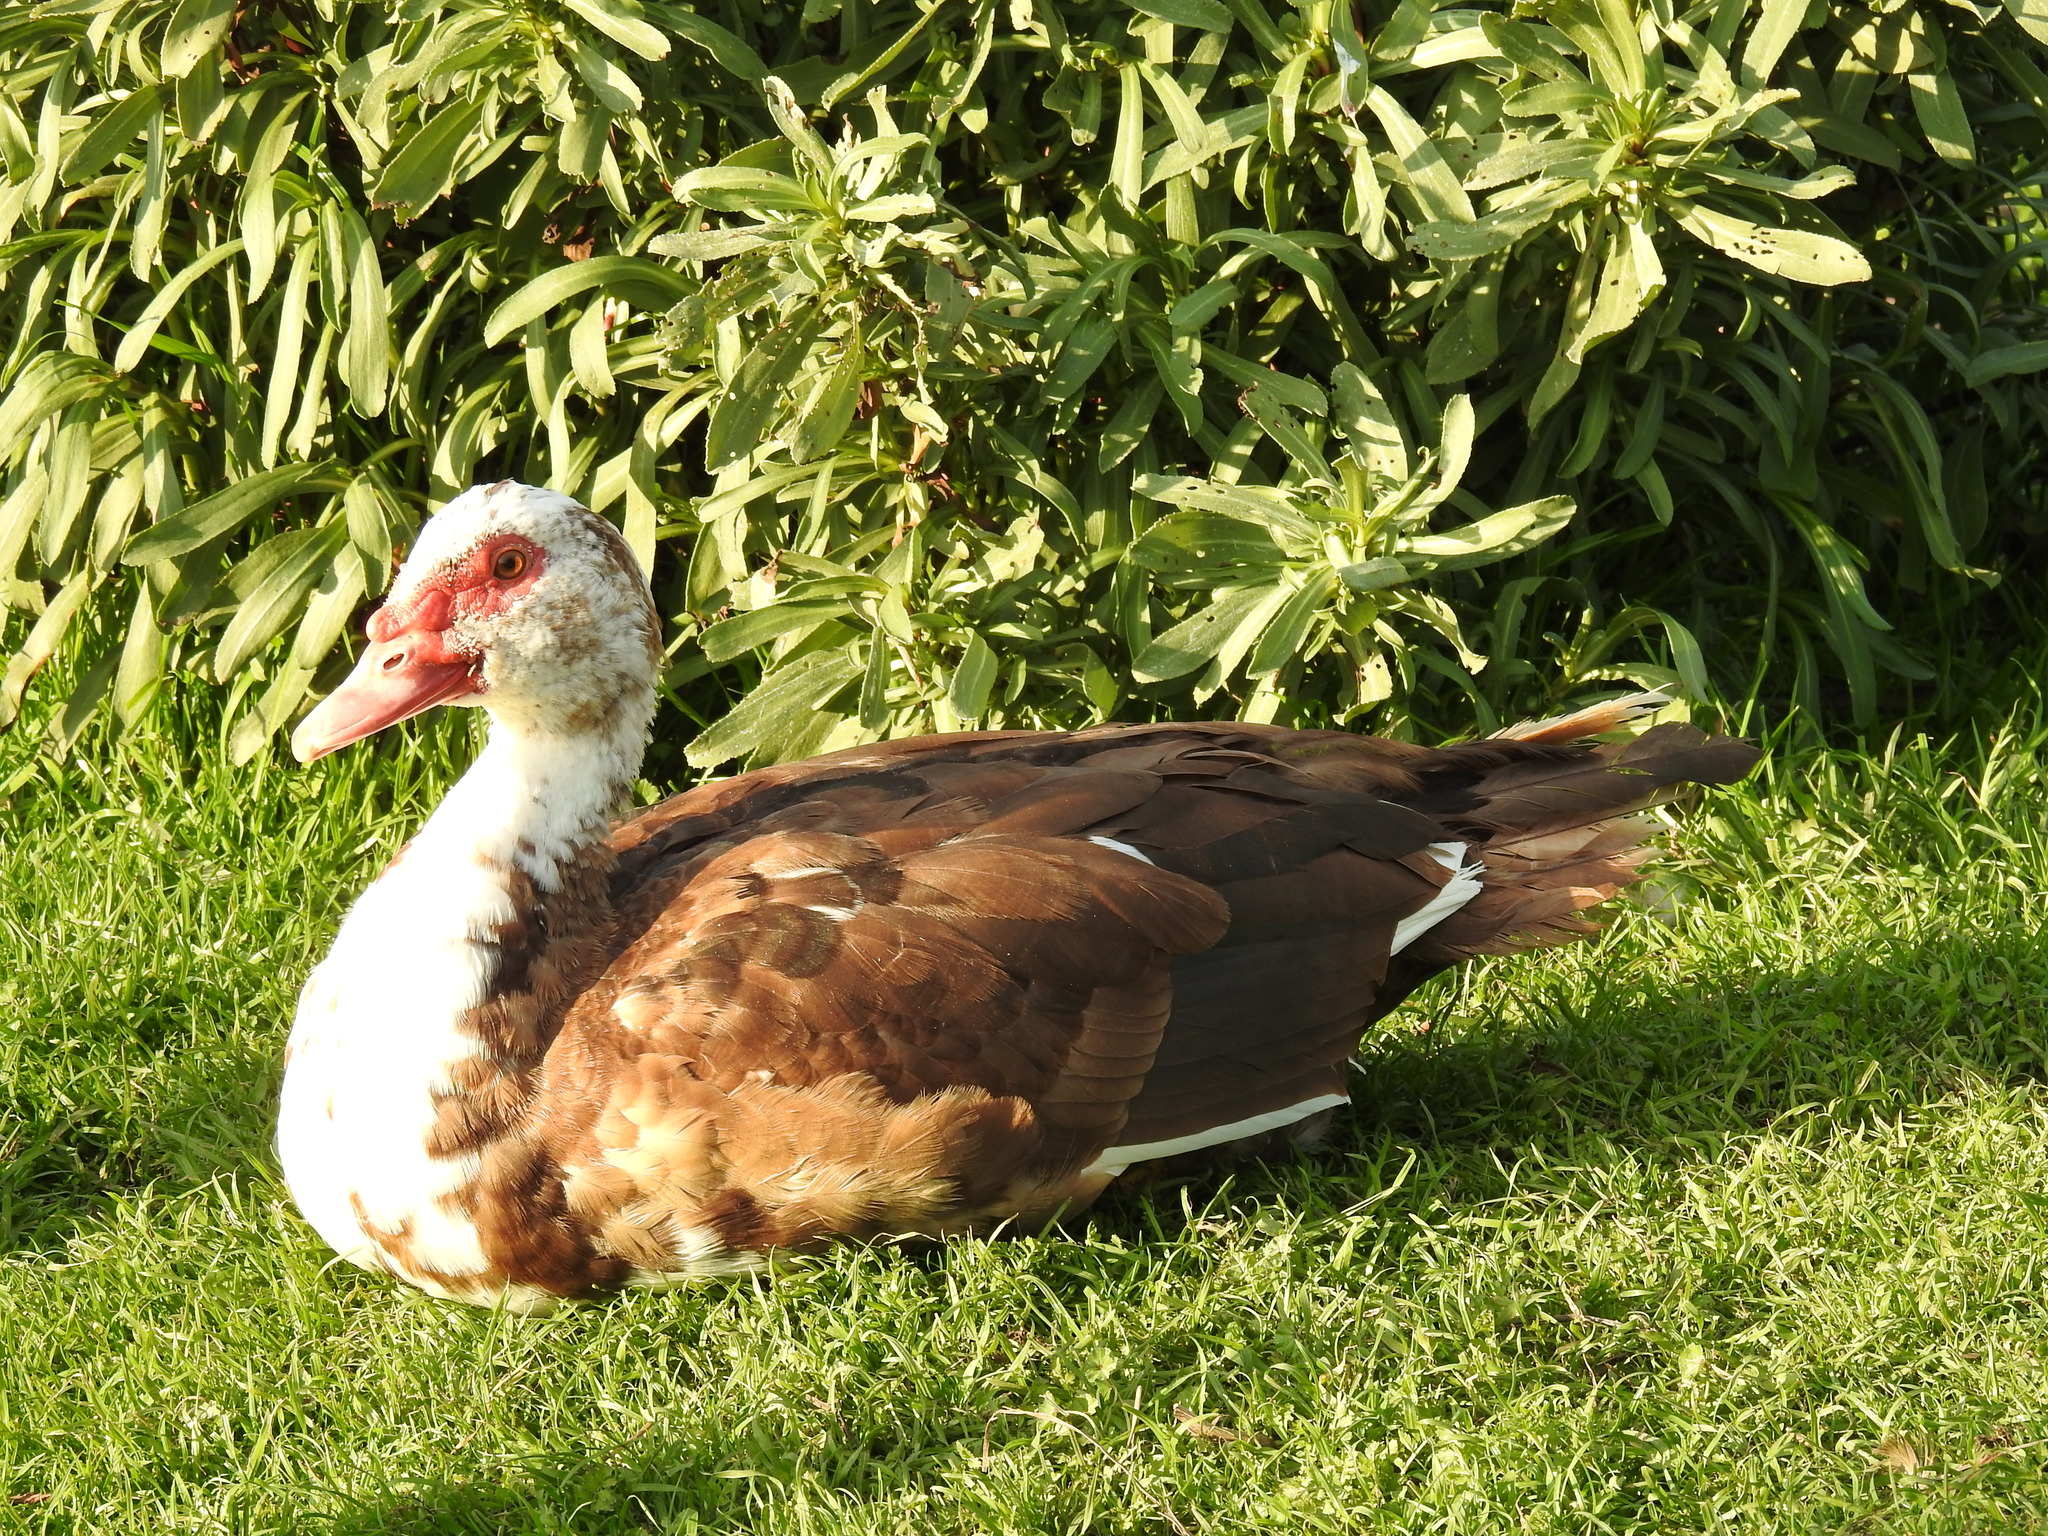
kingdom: Animalia
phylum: Chordata
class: Aves
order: Anseriformes
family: Anatidae
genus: Cairina
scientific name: Cairina moschata
